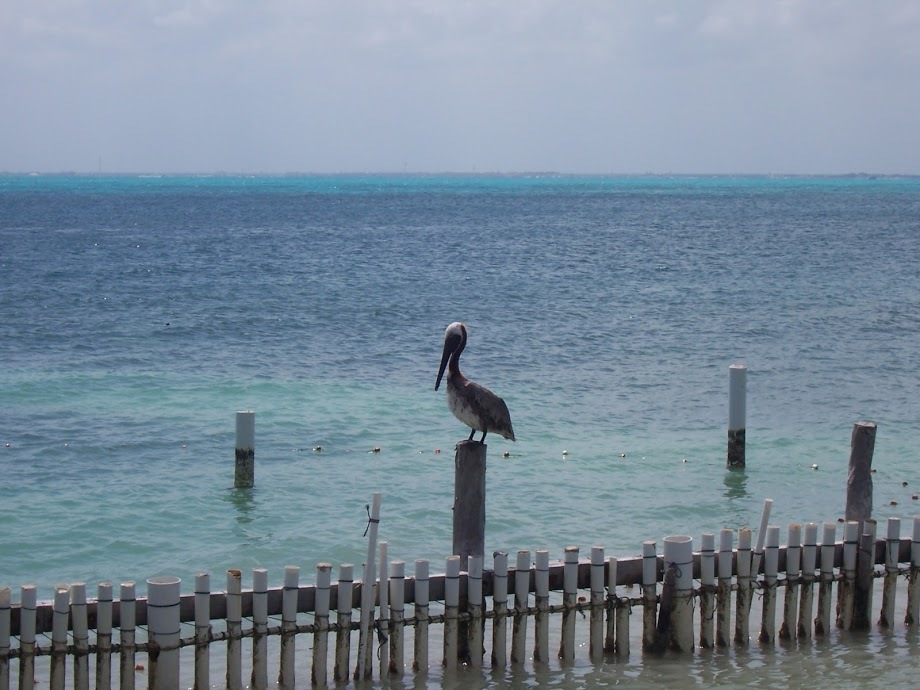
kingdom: Animalia
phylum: Chordata
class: Aves
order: Pelecaniformes
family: Pelecanidae
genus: Pelecanus
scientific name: Pelecanus occidentalis
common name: Brown pelican
